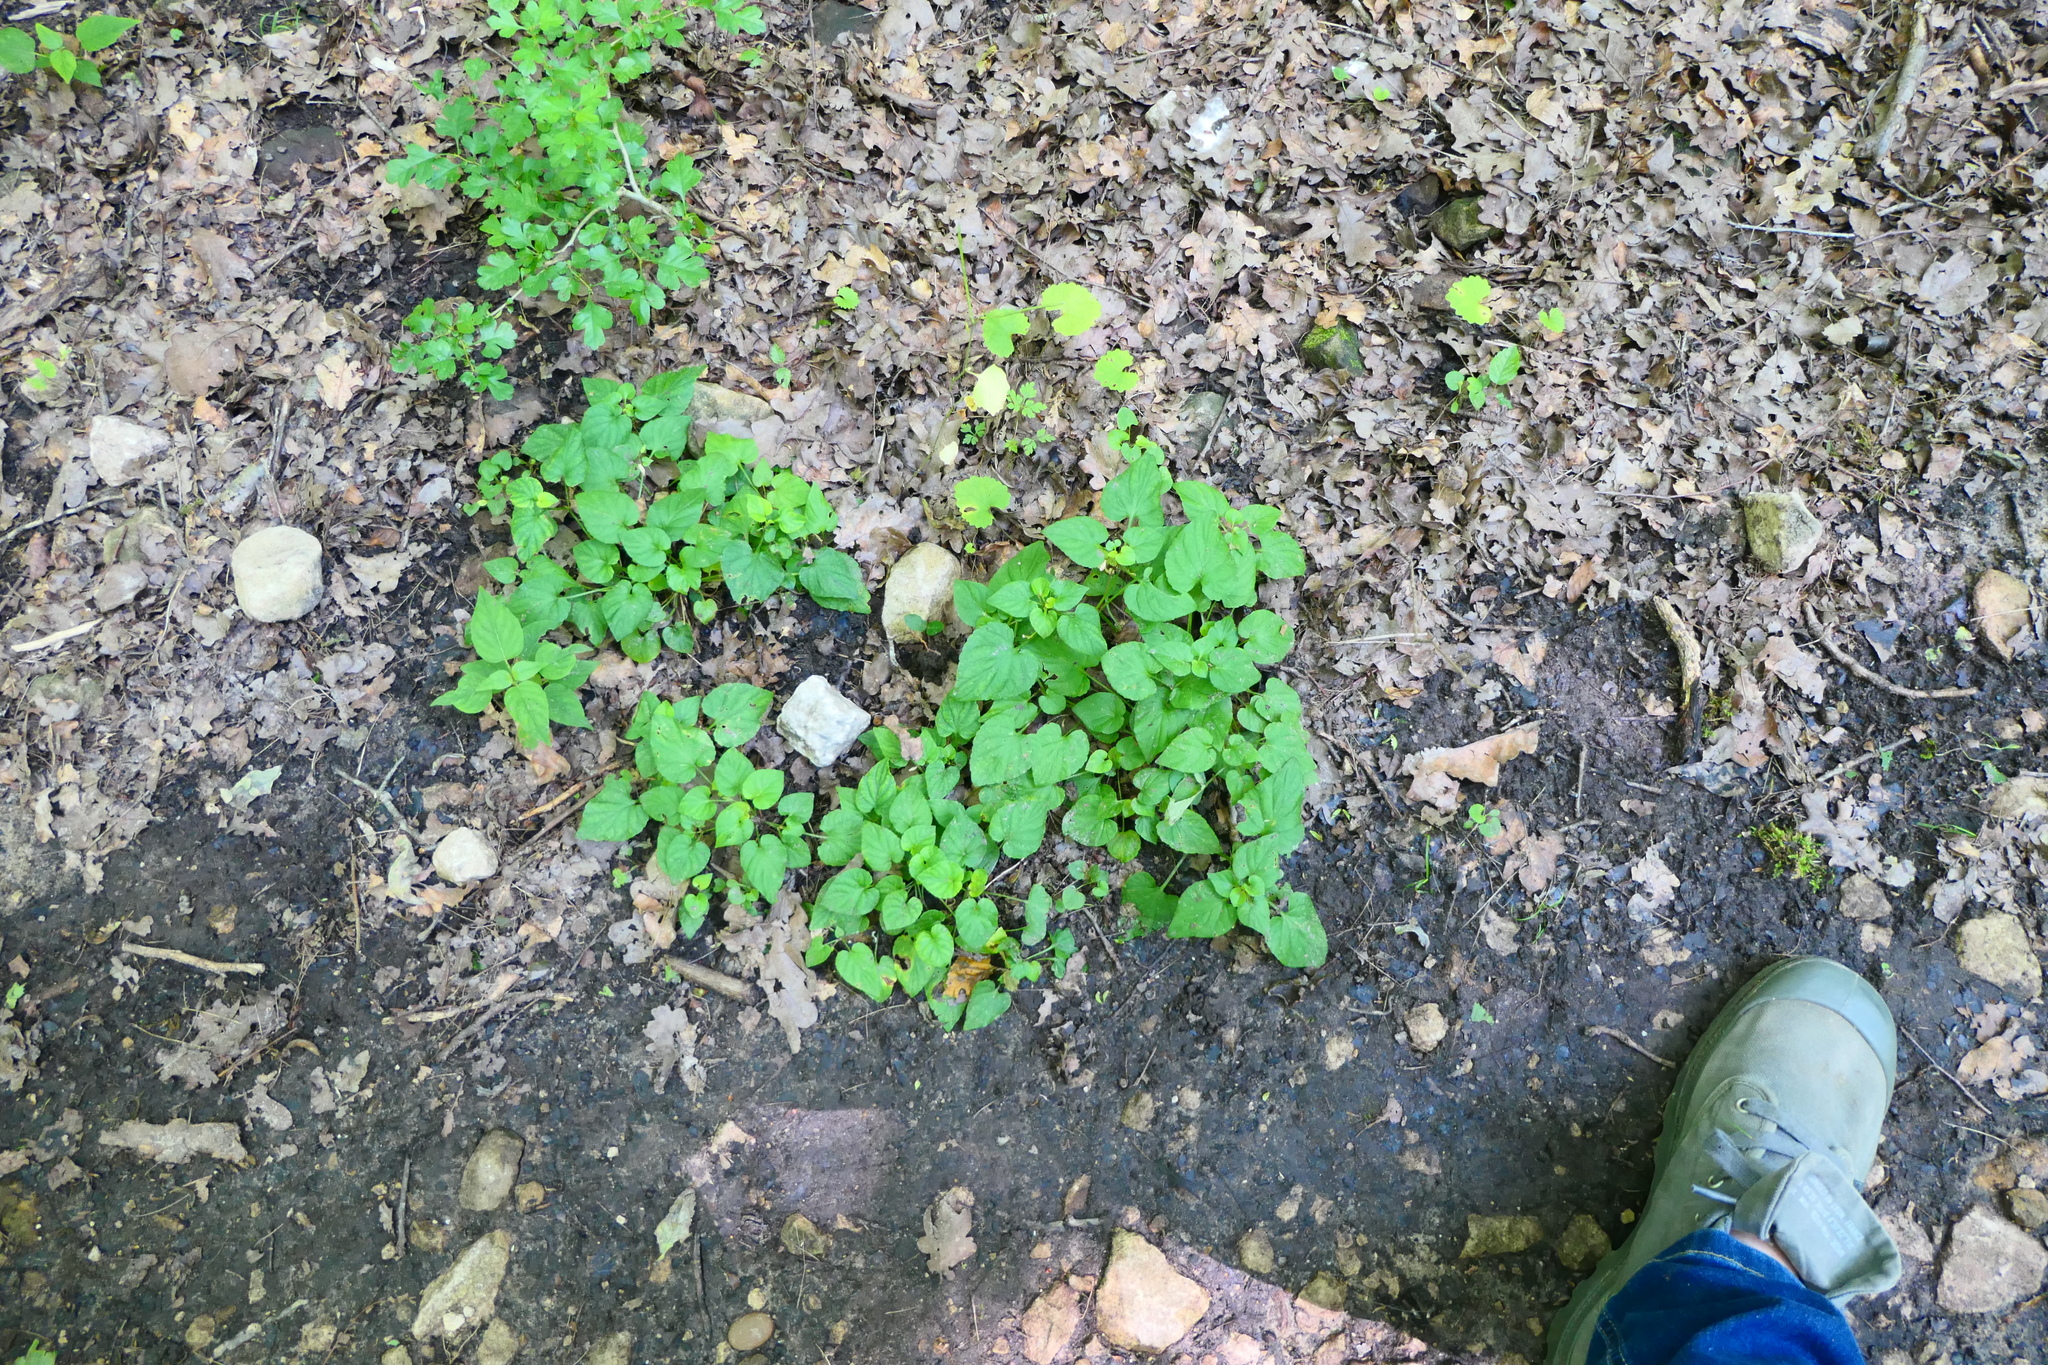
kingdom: Plantae
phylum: Tracheophyta
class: Magnoliopsida
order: Malpighiales
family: Violaceae
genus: Viola
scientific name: Viola reichenbachiana
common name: Early dog-violet
